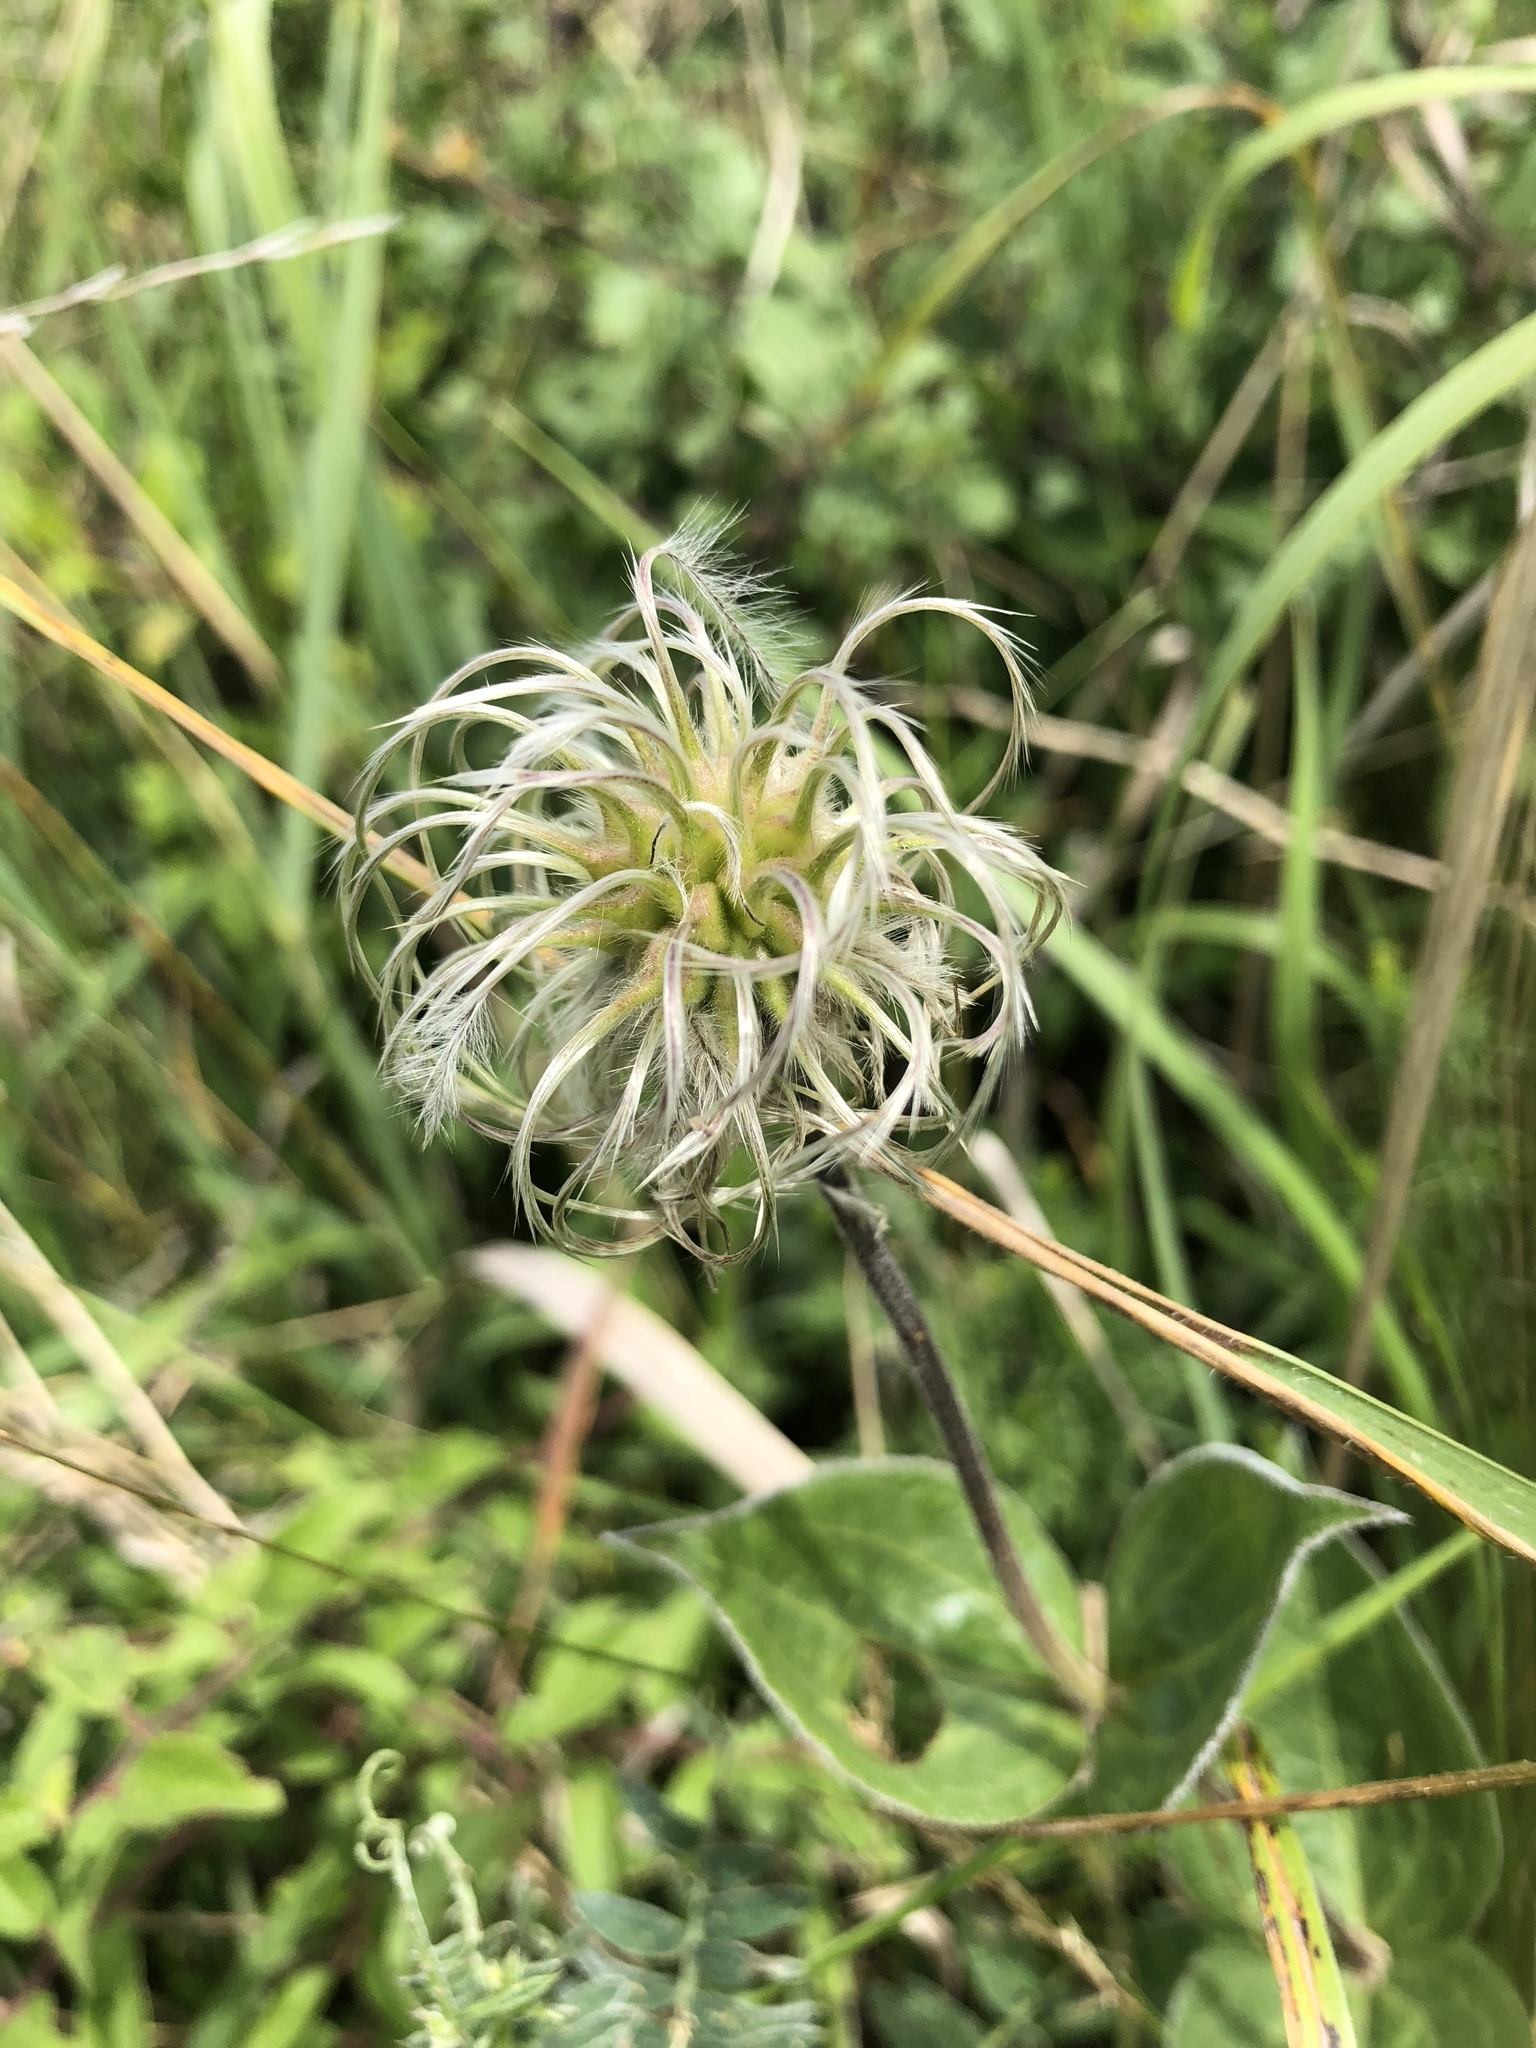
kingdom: Plantae
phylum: Tracheophyta
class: Magnoliopsida
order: Ranunculales
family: Ranunculaceae
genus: Clematis
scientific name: Clematis integrifolia
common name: Solitary clematis
